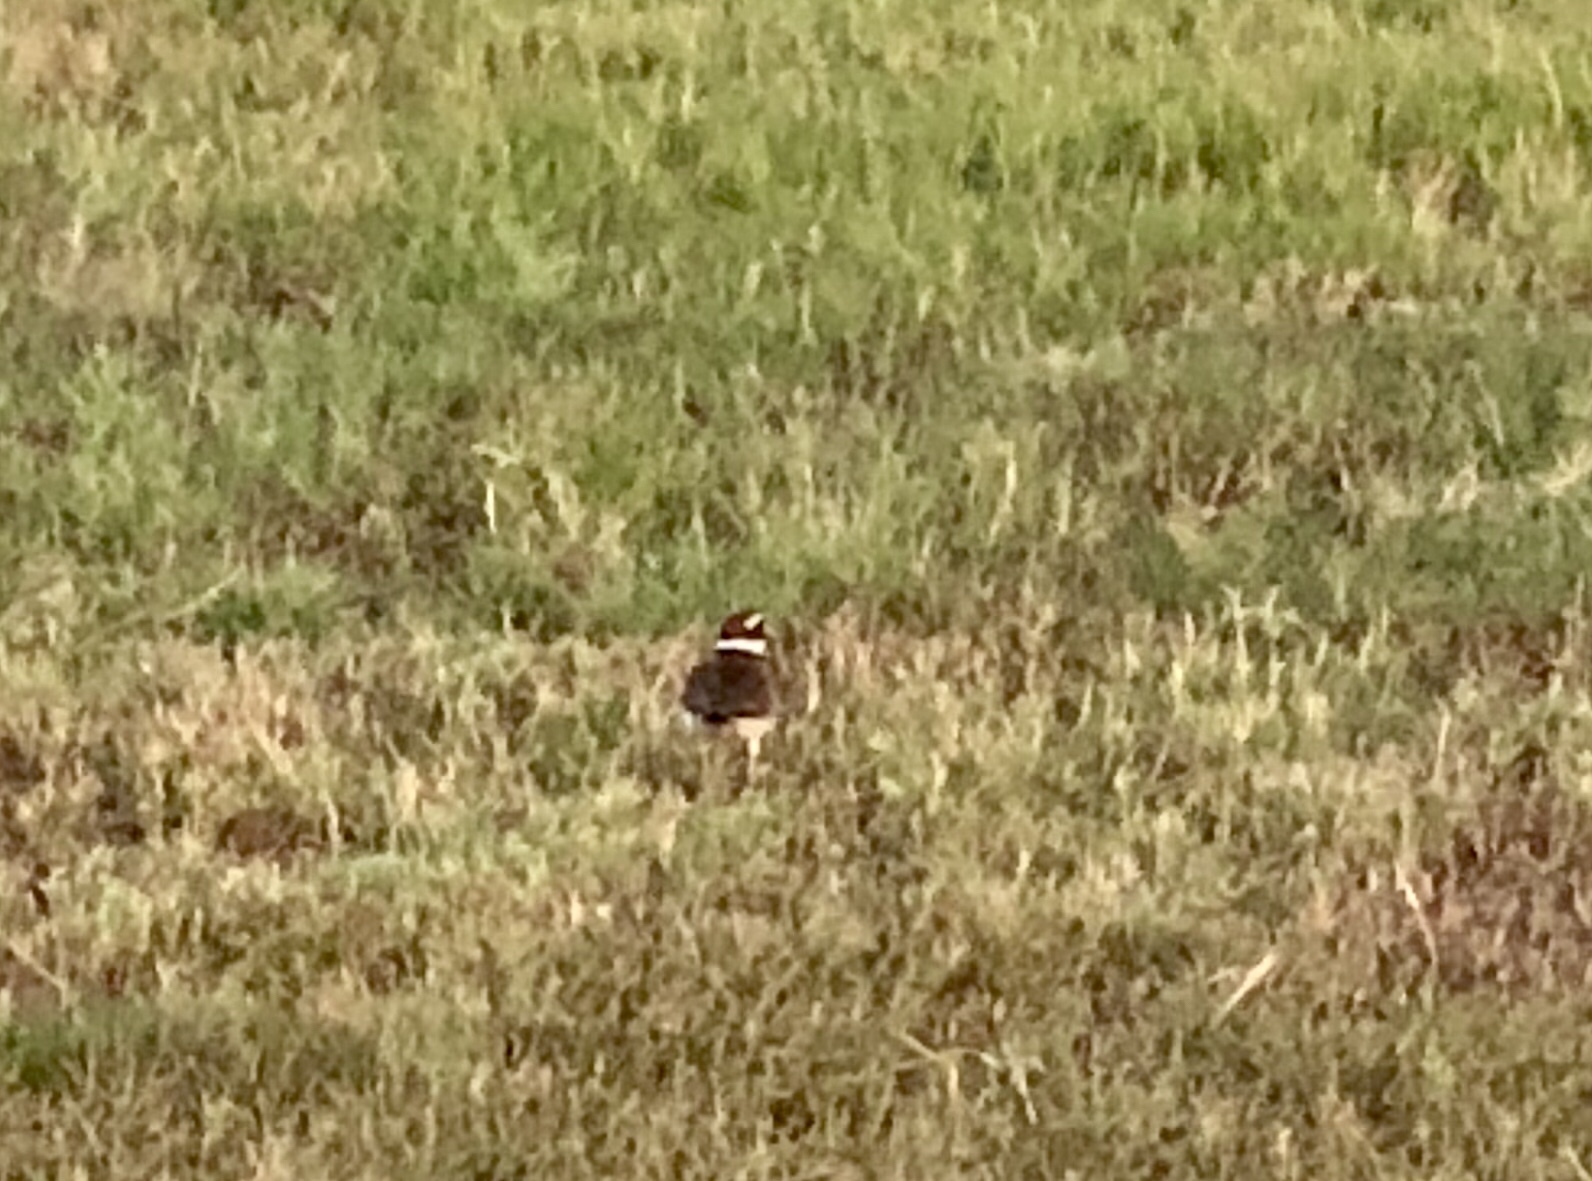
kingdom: Animalia
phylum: Chordata
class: Aves
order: Charadriiformes
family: Charadriidae
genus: Charadrius
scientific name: Charadrius vociferus
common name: Killdeer
